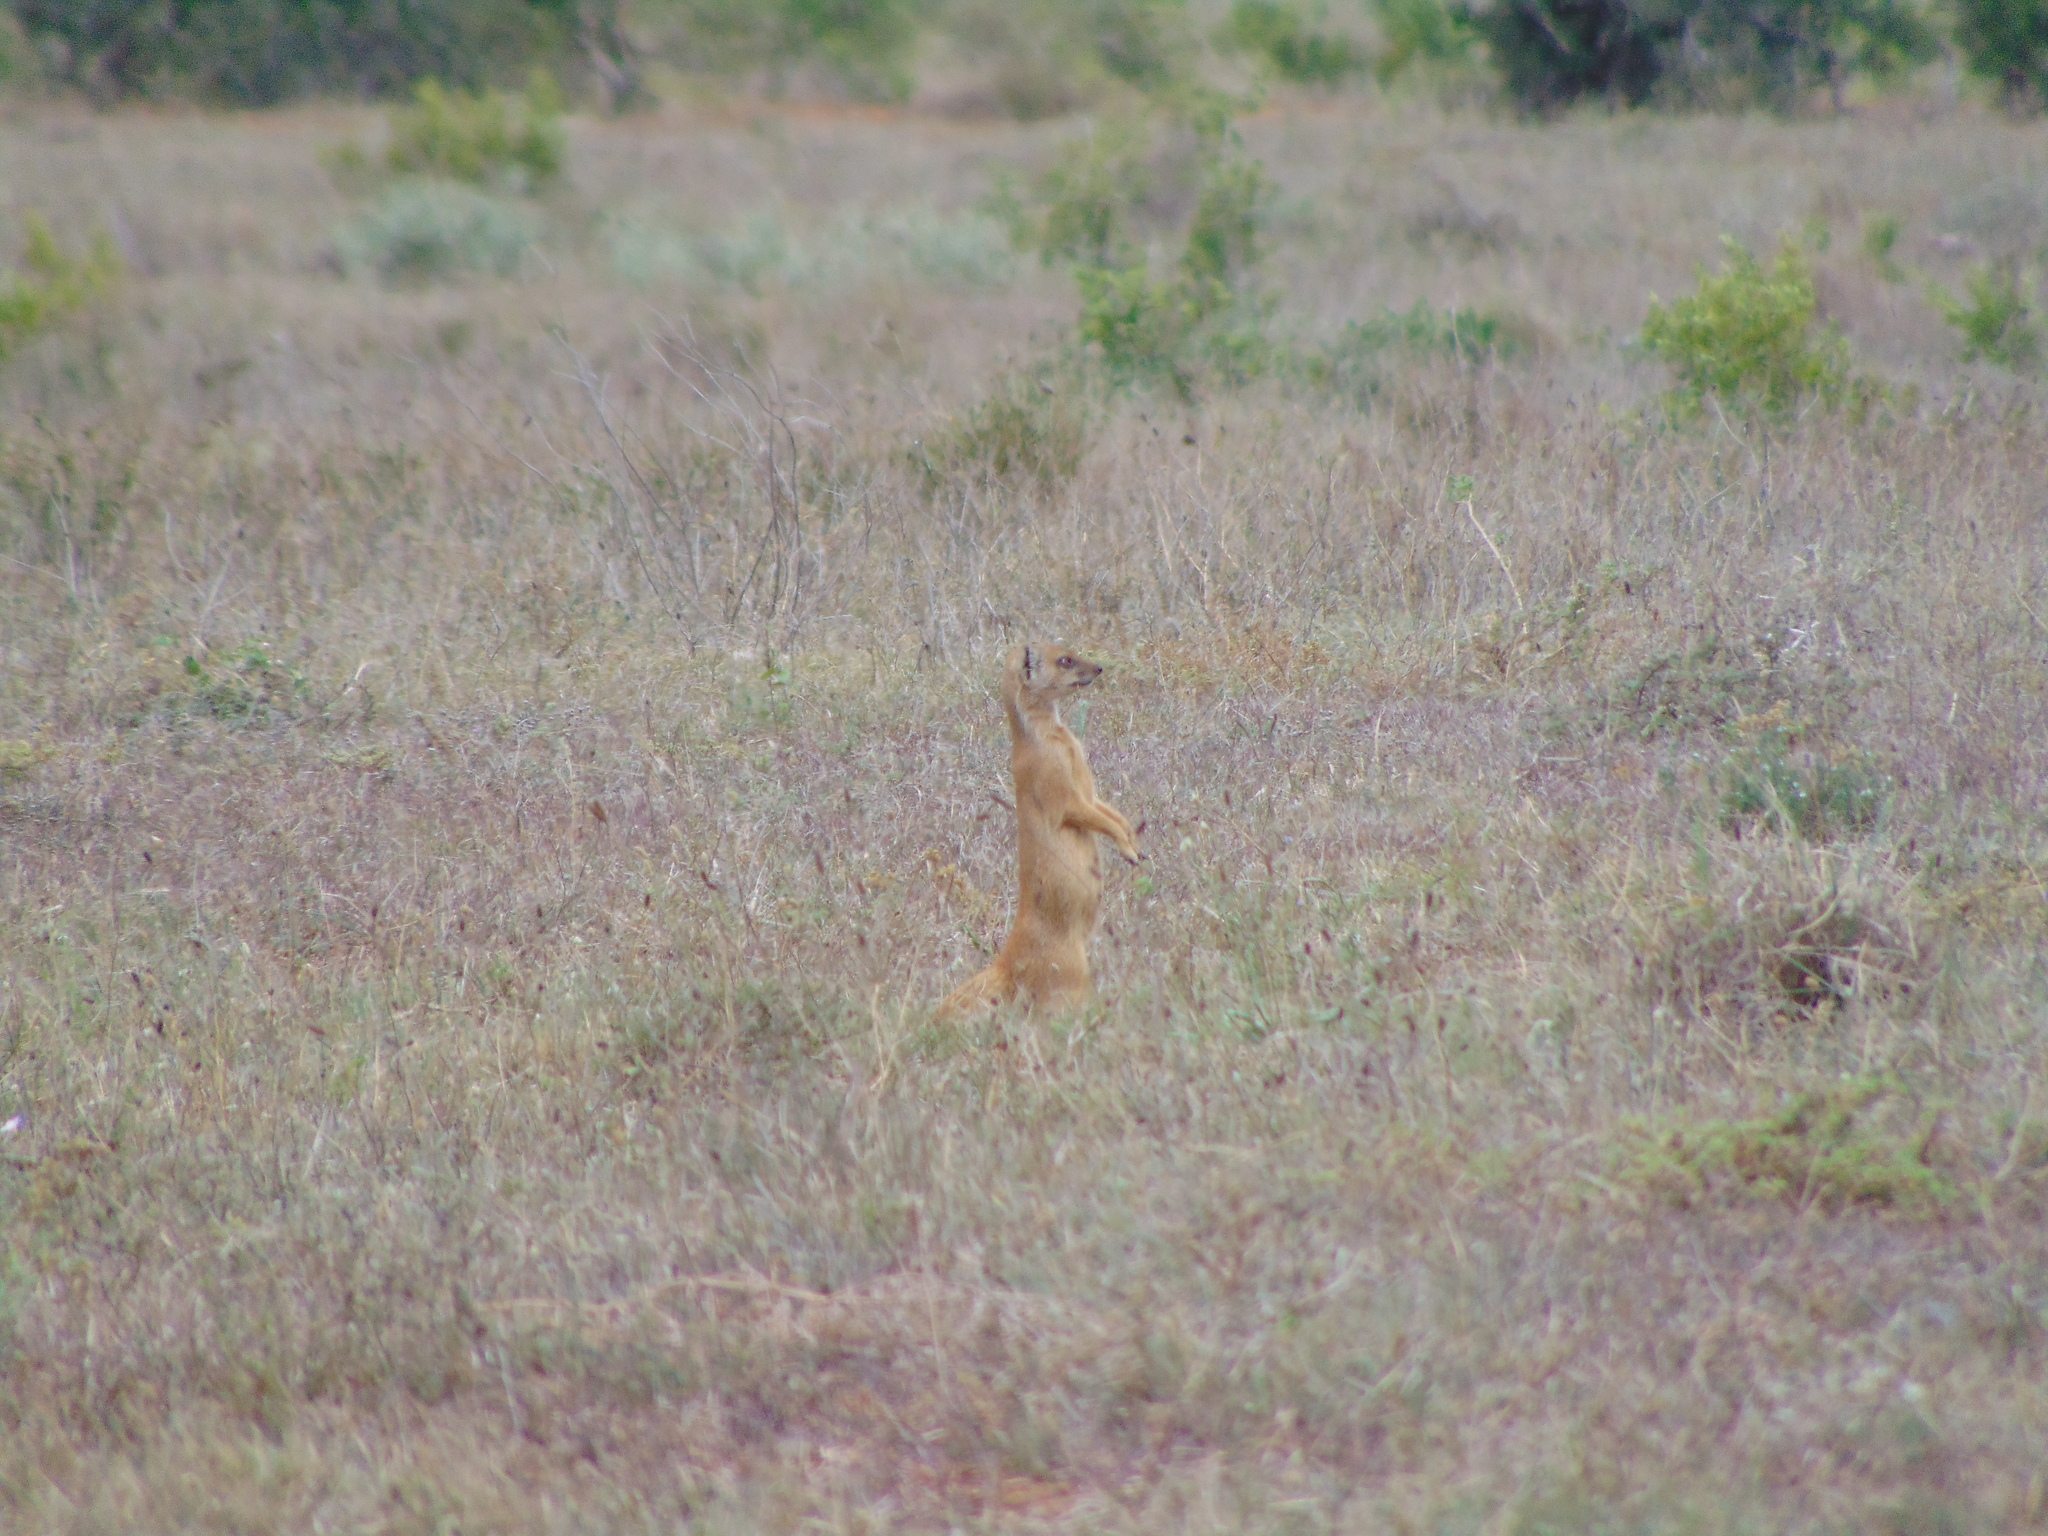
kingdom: Animalia
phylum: Chordata
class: Mammalia
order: Carnivora
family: Herpestidae
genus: Cynictis
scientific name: Cynictis penicillata
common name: Yellow mongoose
